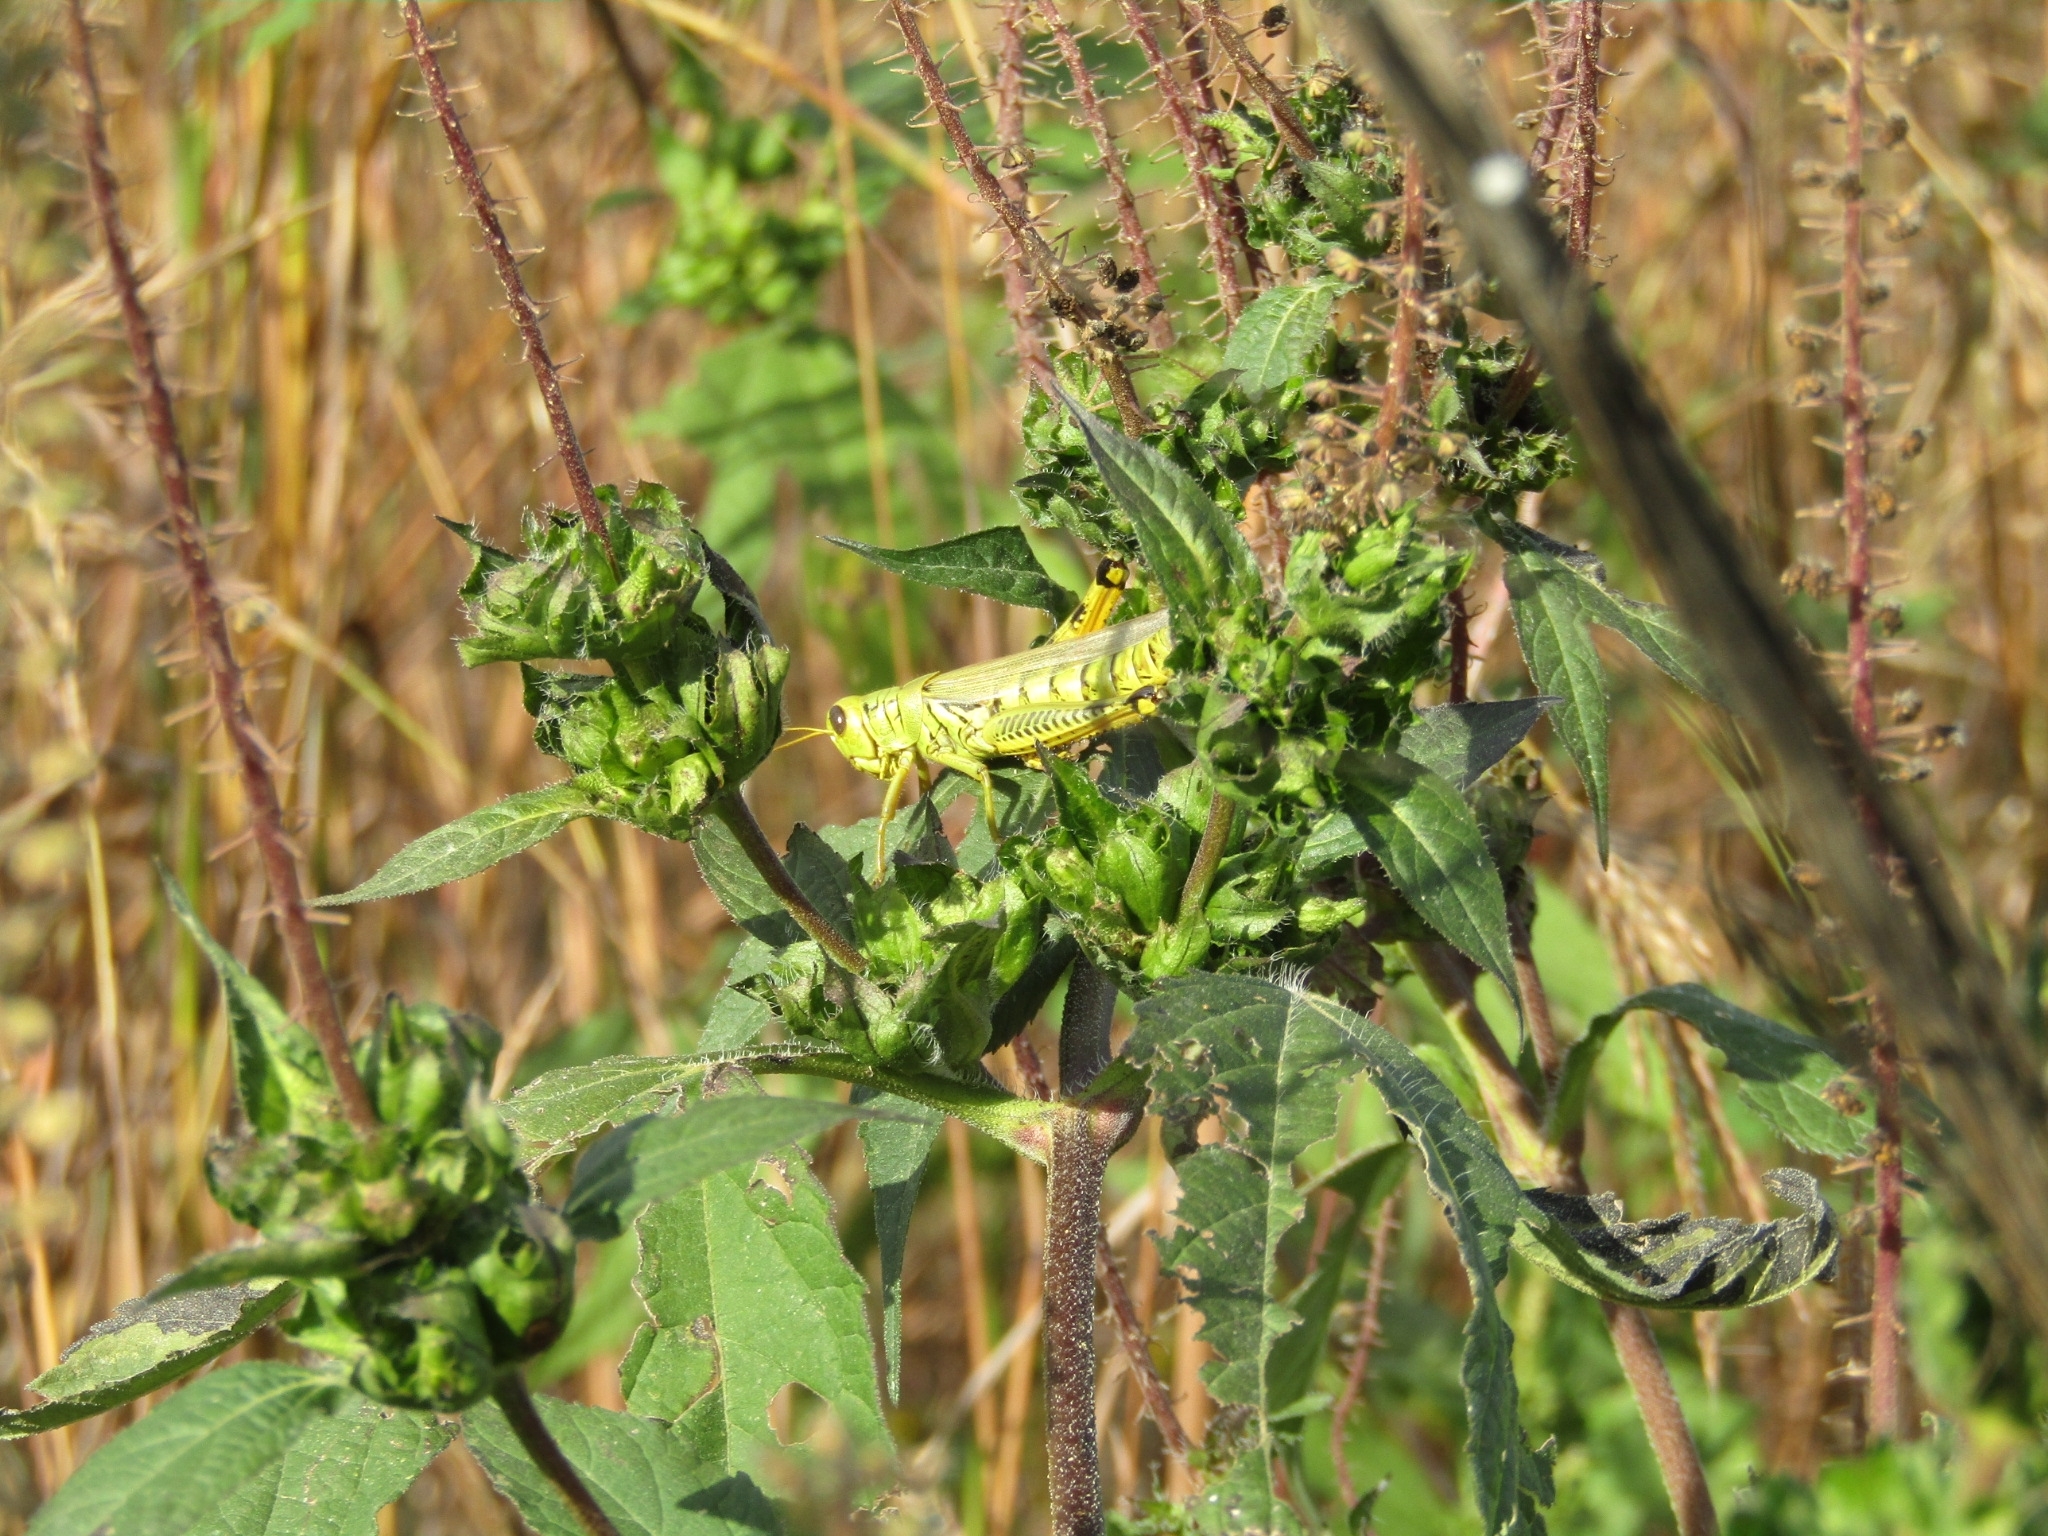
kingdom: Animalia
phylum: Arthropoda
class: Insecta
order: Orthoptera
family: Acrididae
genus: Melanoplus
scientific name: Melanoplus differentialis
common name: Differential grasshopper
